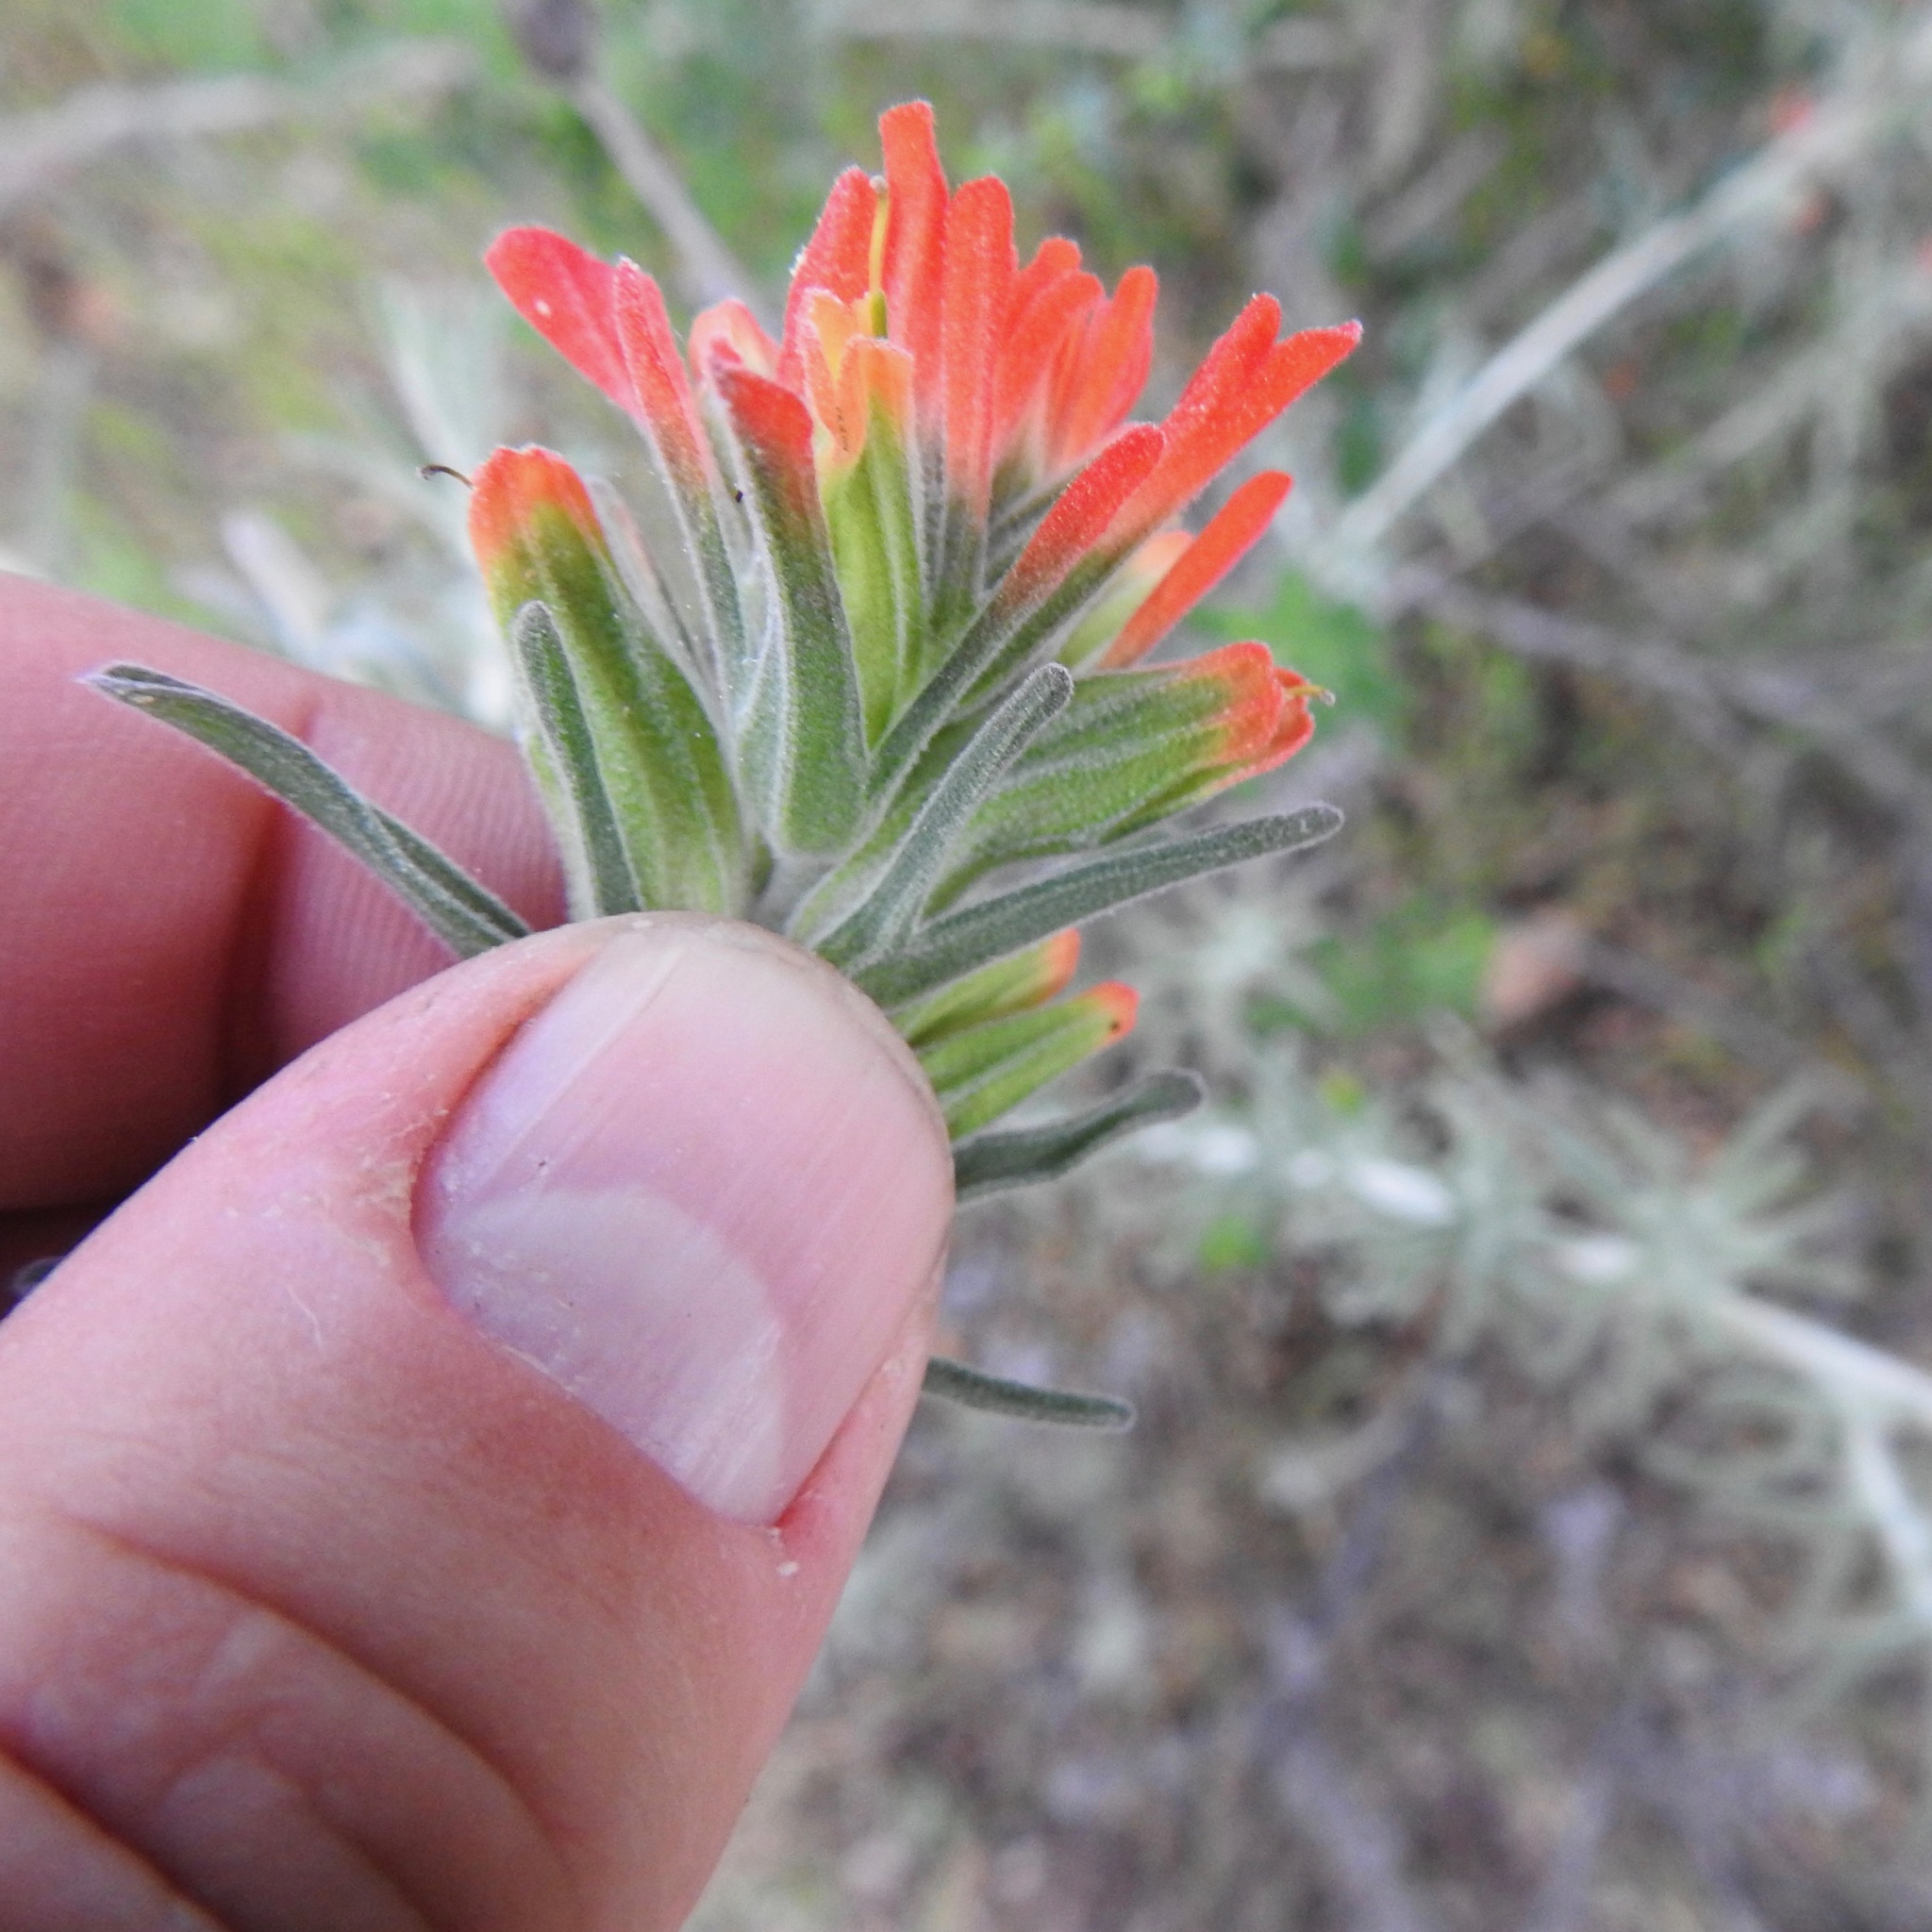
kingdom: Plantae
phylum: Tracheophyta
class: Magnoliopsida
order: Lamiales
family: Orobanchaceae
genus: Castilleja
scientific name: Castilleja foliolosa
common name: Woolly indian paintbrush
